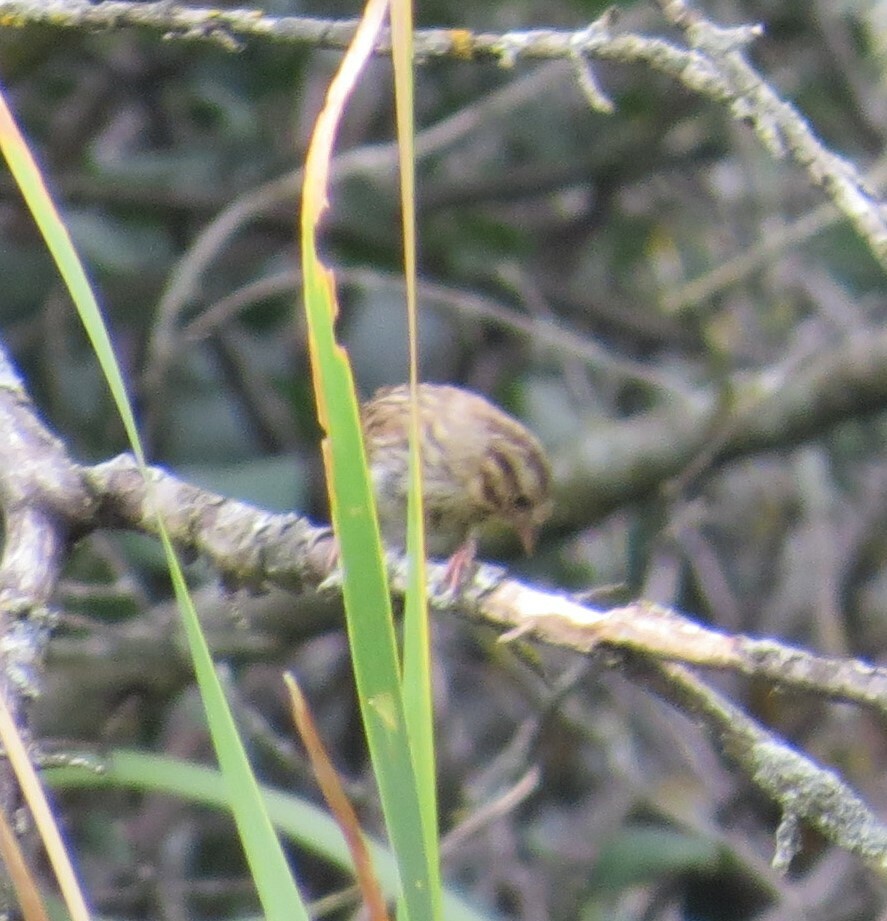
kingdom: Animalia
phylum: Chordata
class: Aves
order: Passeriformes
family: Passerellidae
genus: Melospiza
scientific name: Melospiza melodia
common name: Song sparrow
